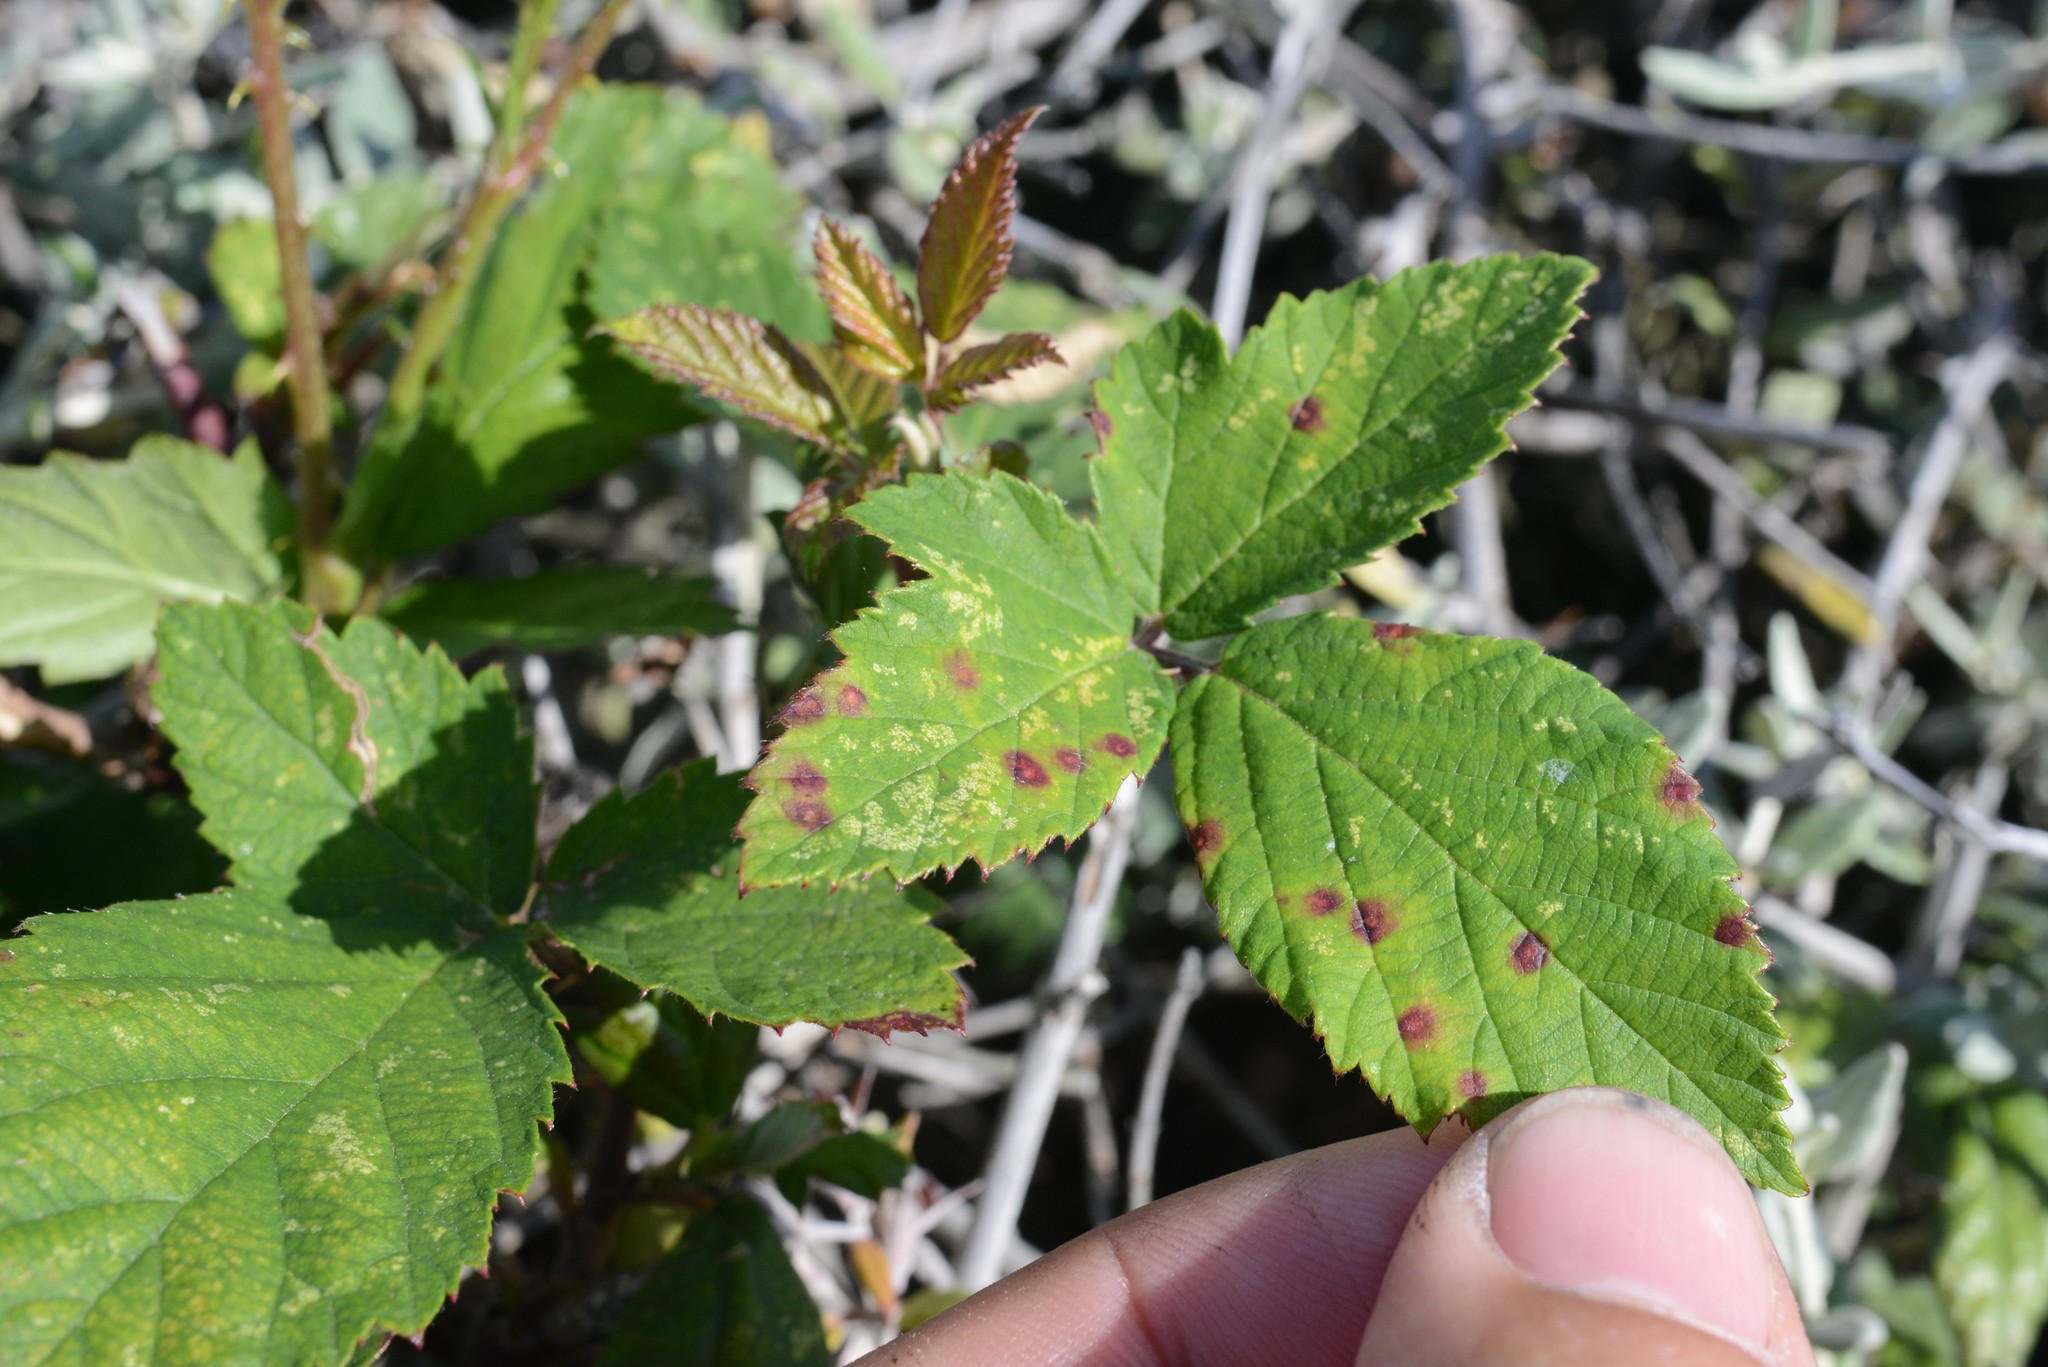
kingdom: Fungi
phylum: Basidiomycota
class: Pucciniomycetes
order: Pucciniales
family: Phragmidiaceae
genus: Phragmidium
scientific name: Phragmidium violaceum
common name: Violet bramble rust
